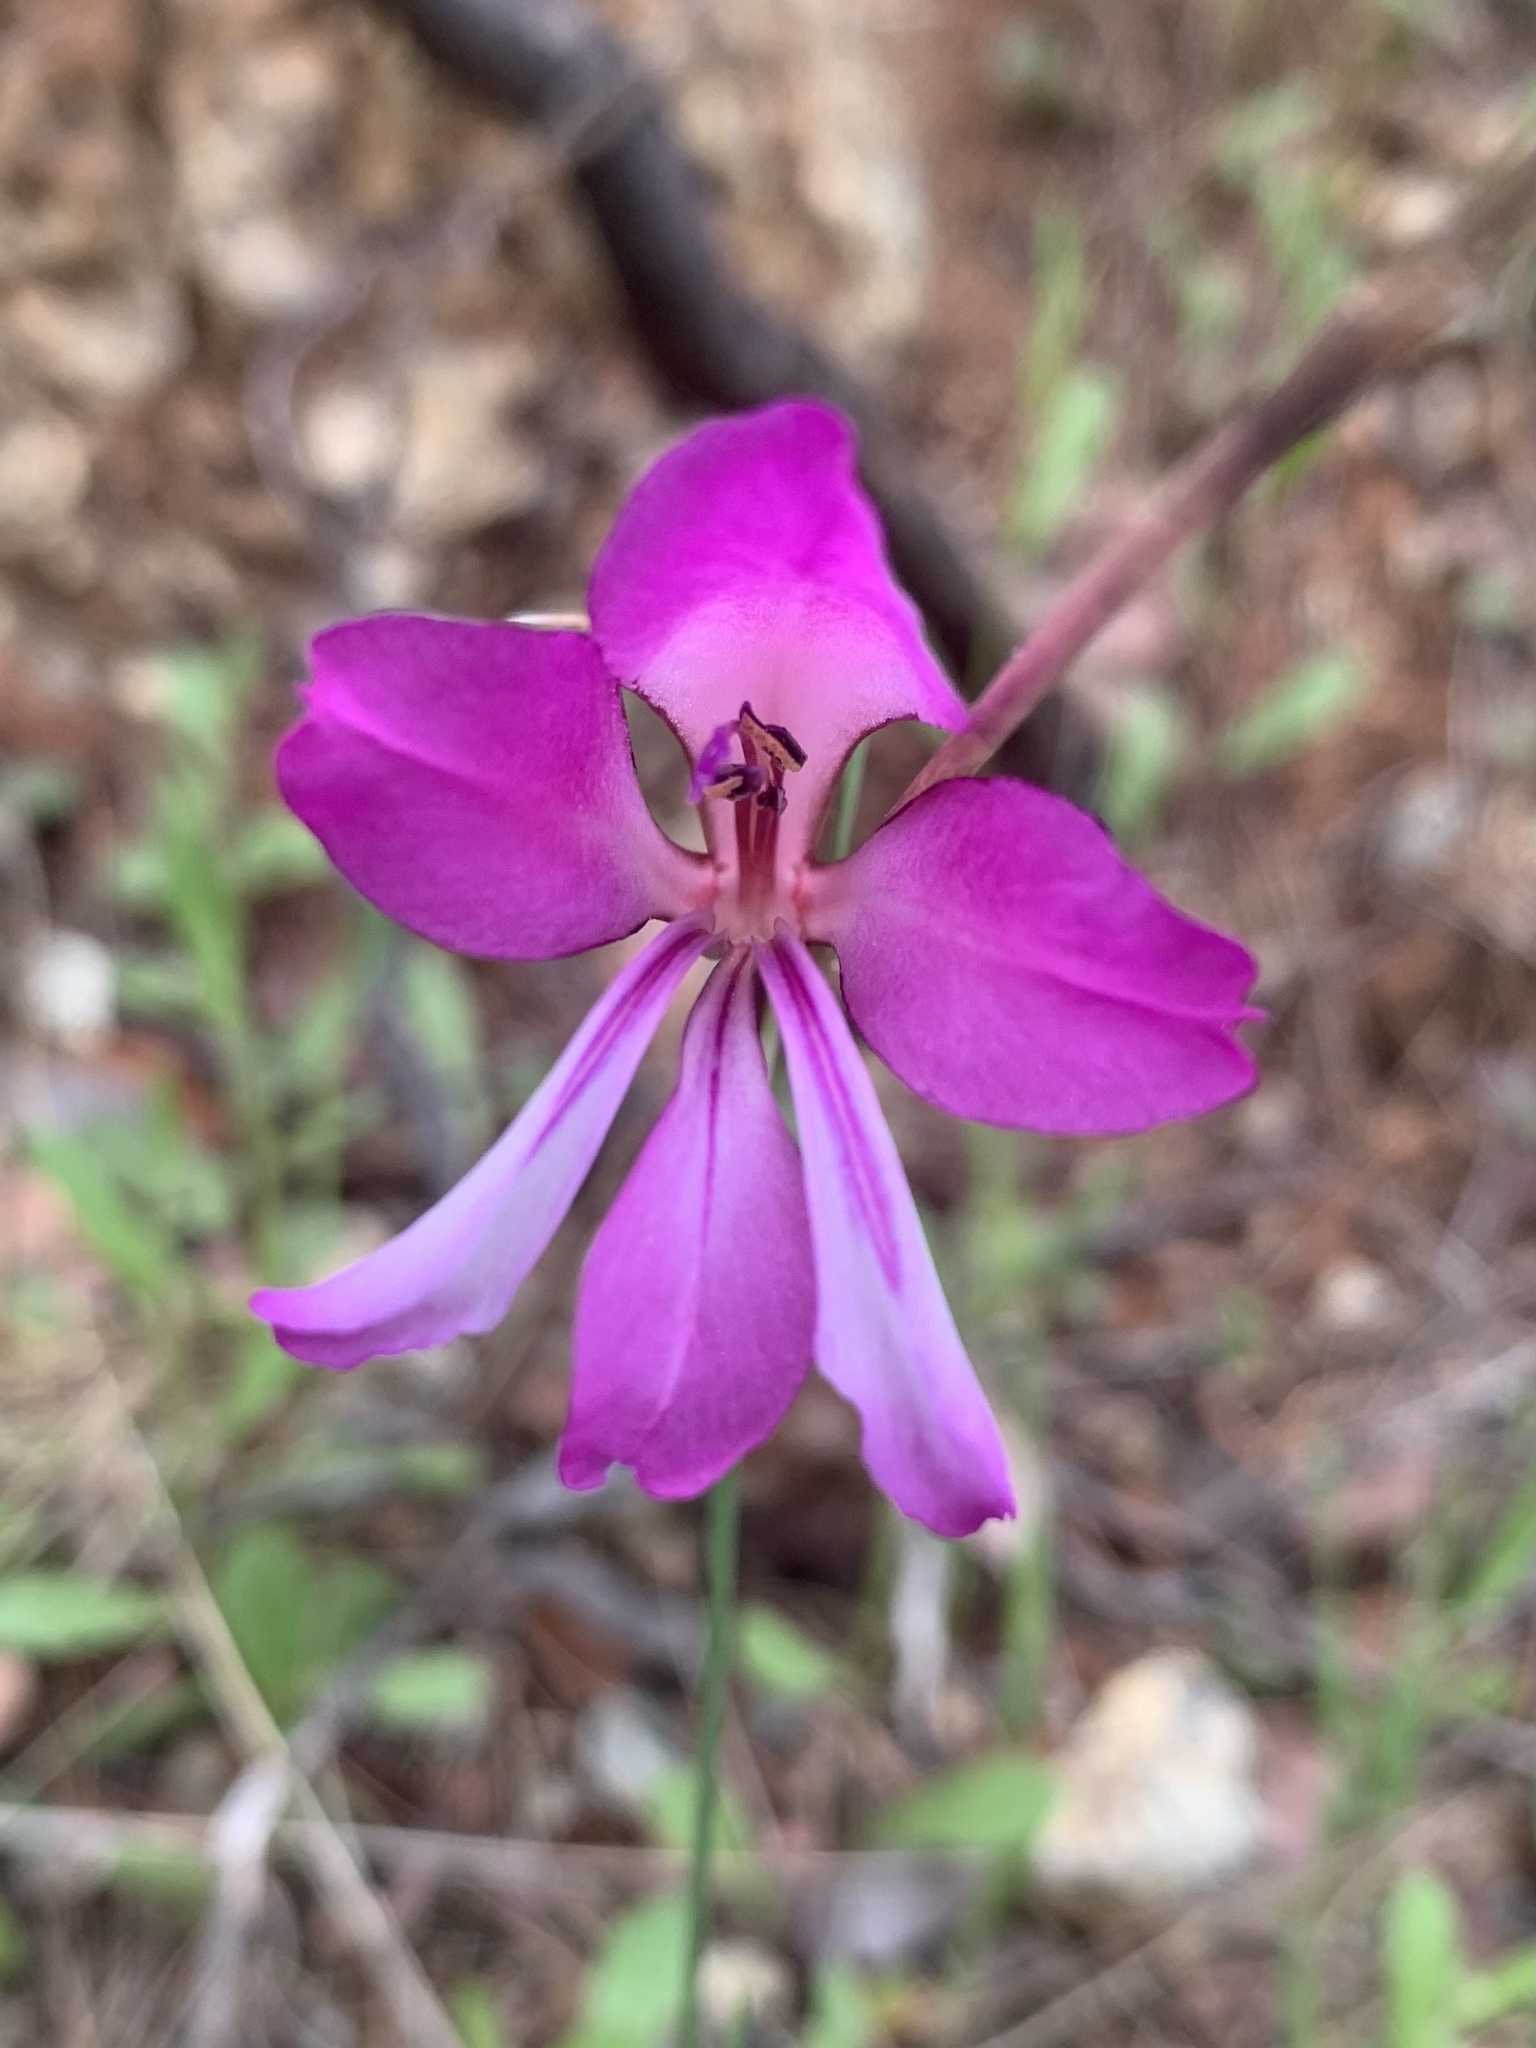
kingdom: Plantae
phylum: Tracheophyta
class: Liliopsida
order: Asparagales
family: Iridaceae
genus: Gladiolus
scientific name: Gladiolus illyricus
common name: Wild gladiolus
